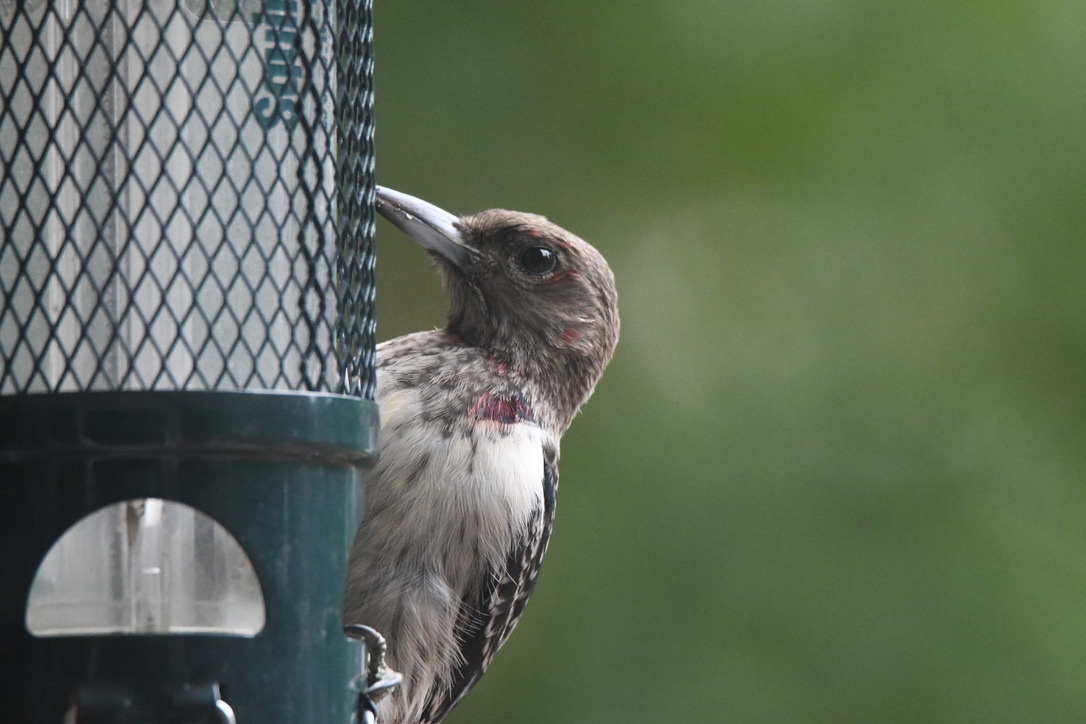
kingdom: Animalia
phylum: Chordata
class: Aves
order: Piciformes
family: Picidae
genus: Melanerpes
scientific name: Melanerpes erythrocephalus
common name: Red-headed woodpecker
